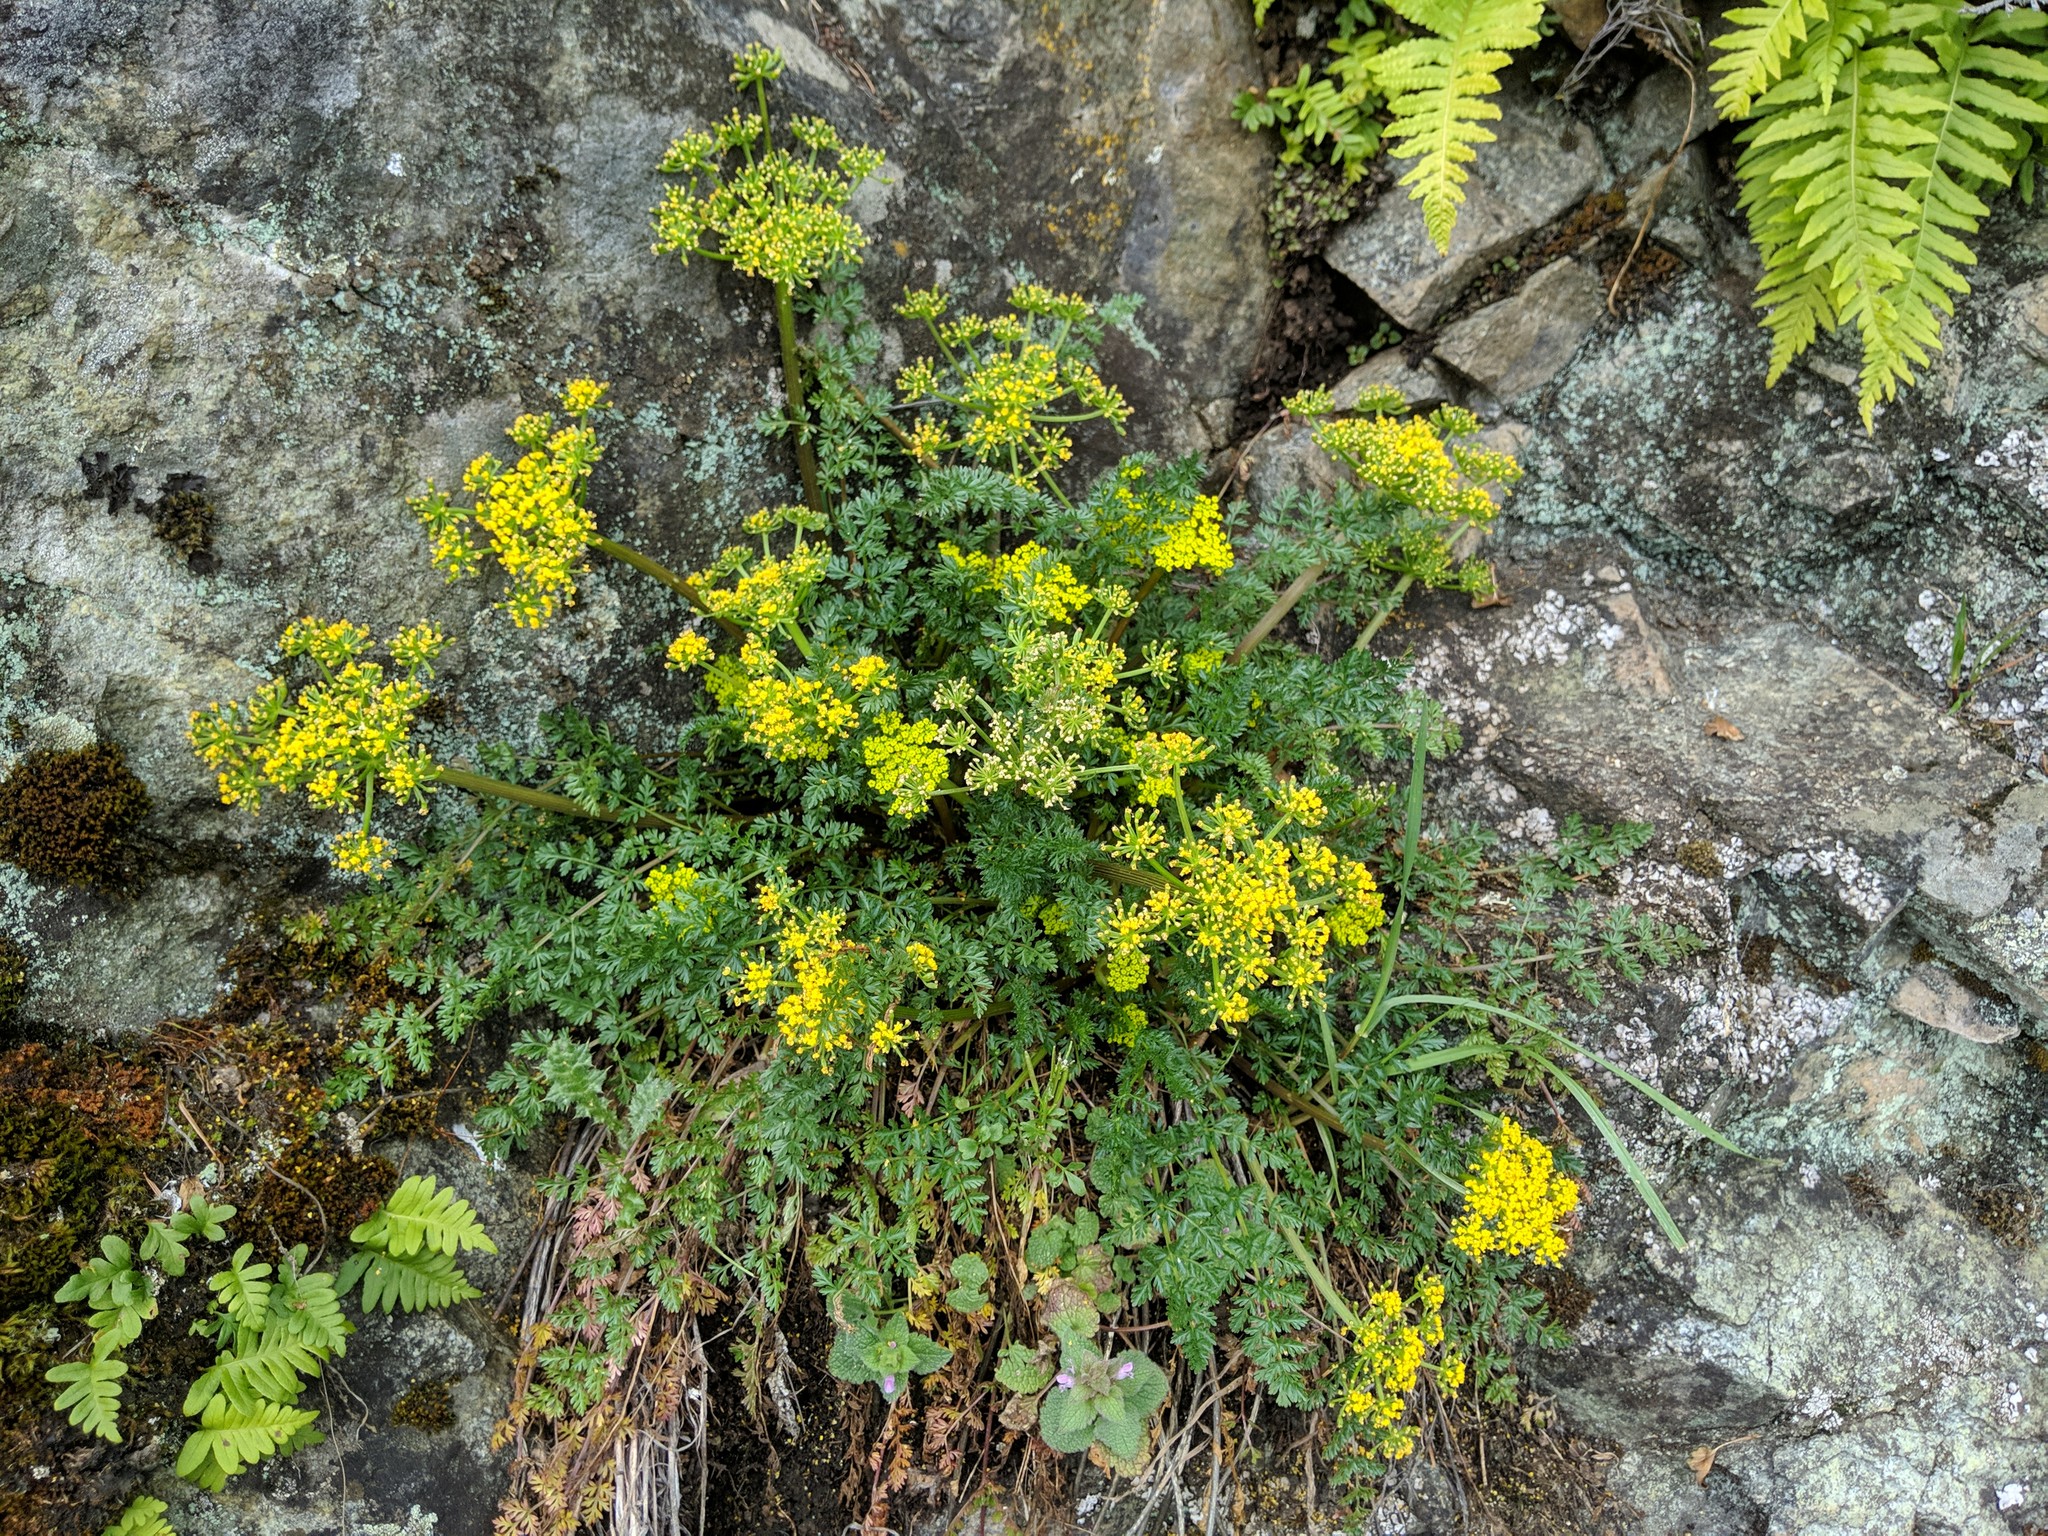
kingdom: Plantae
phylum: Tracheophyta
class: Magnoliopsida
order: Apiales
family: Apiaceae
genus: Lomatium
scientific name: Lomatium hallii
